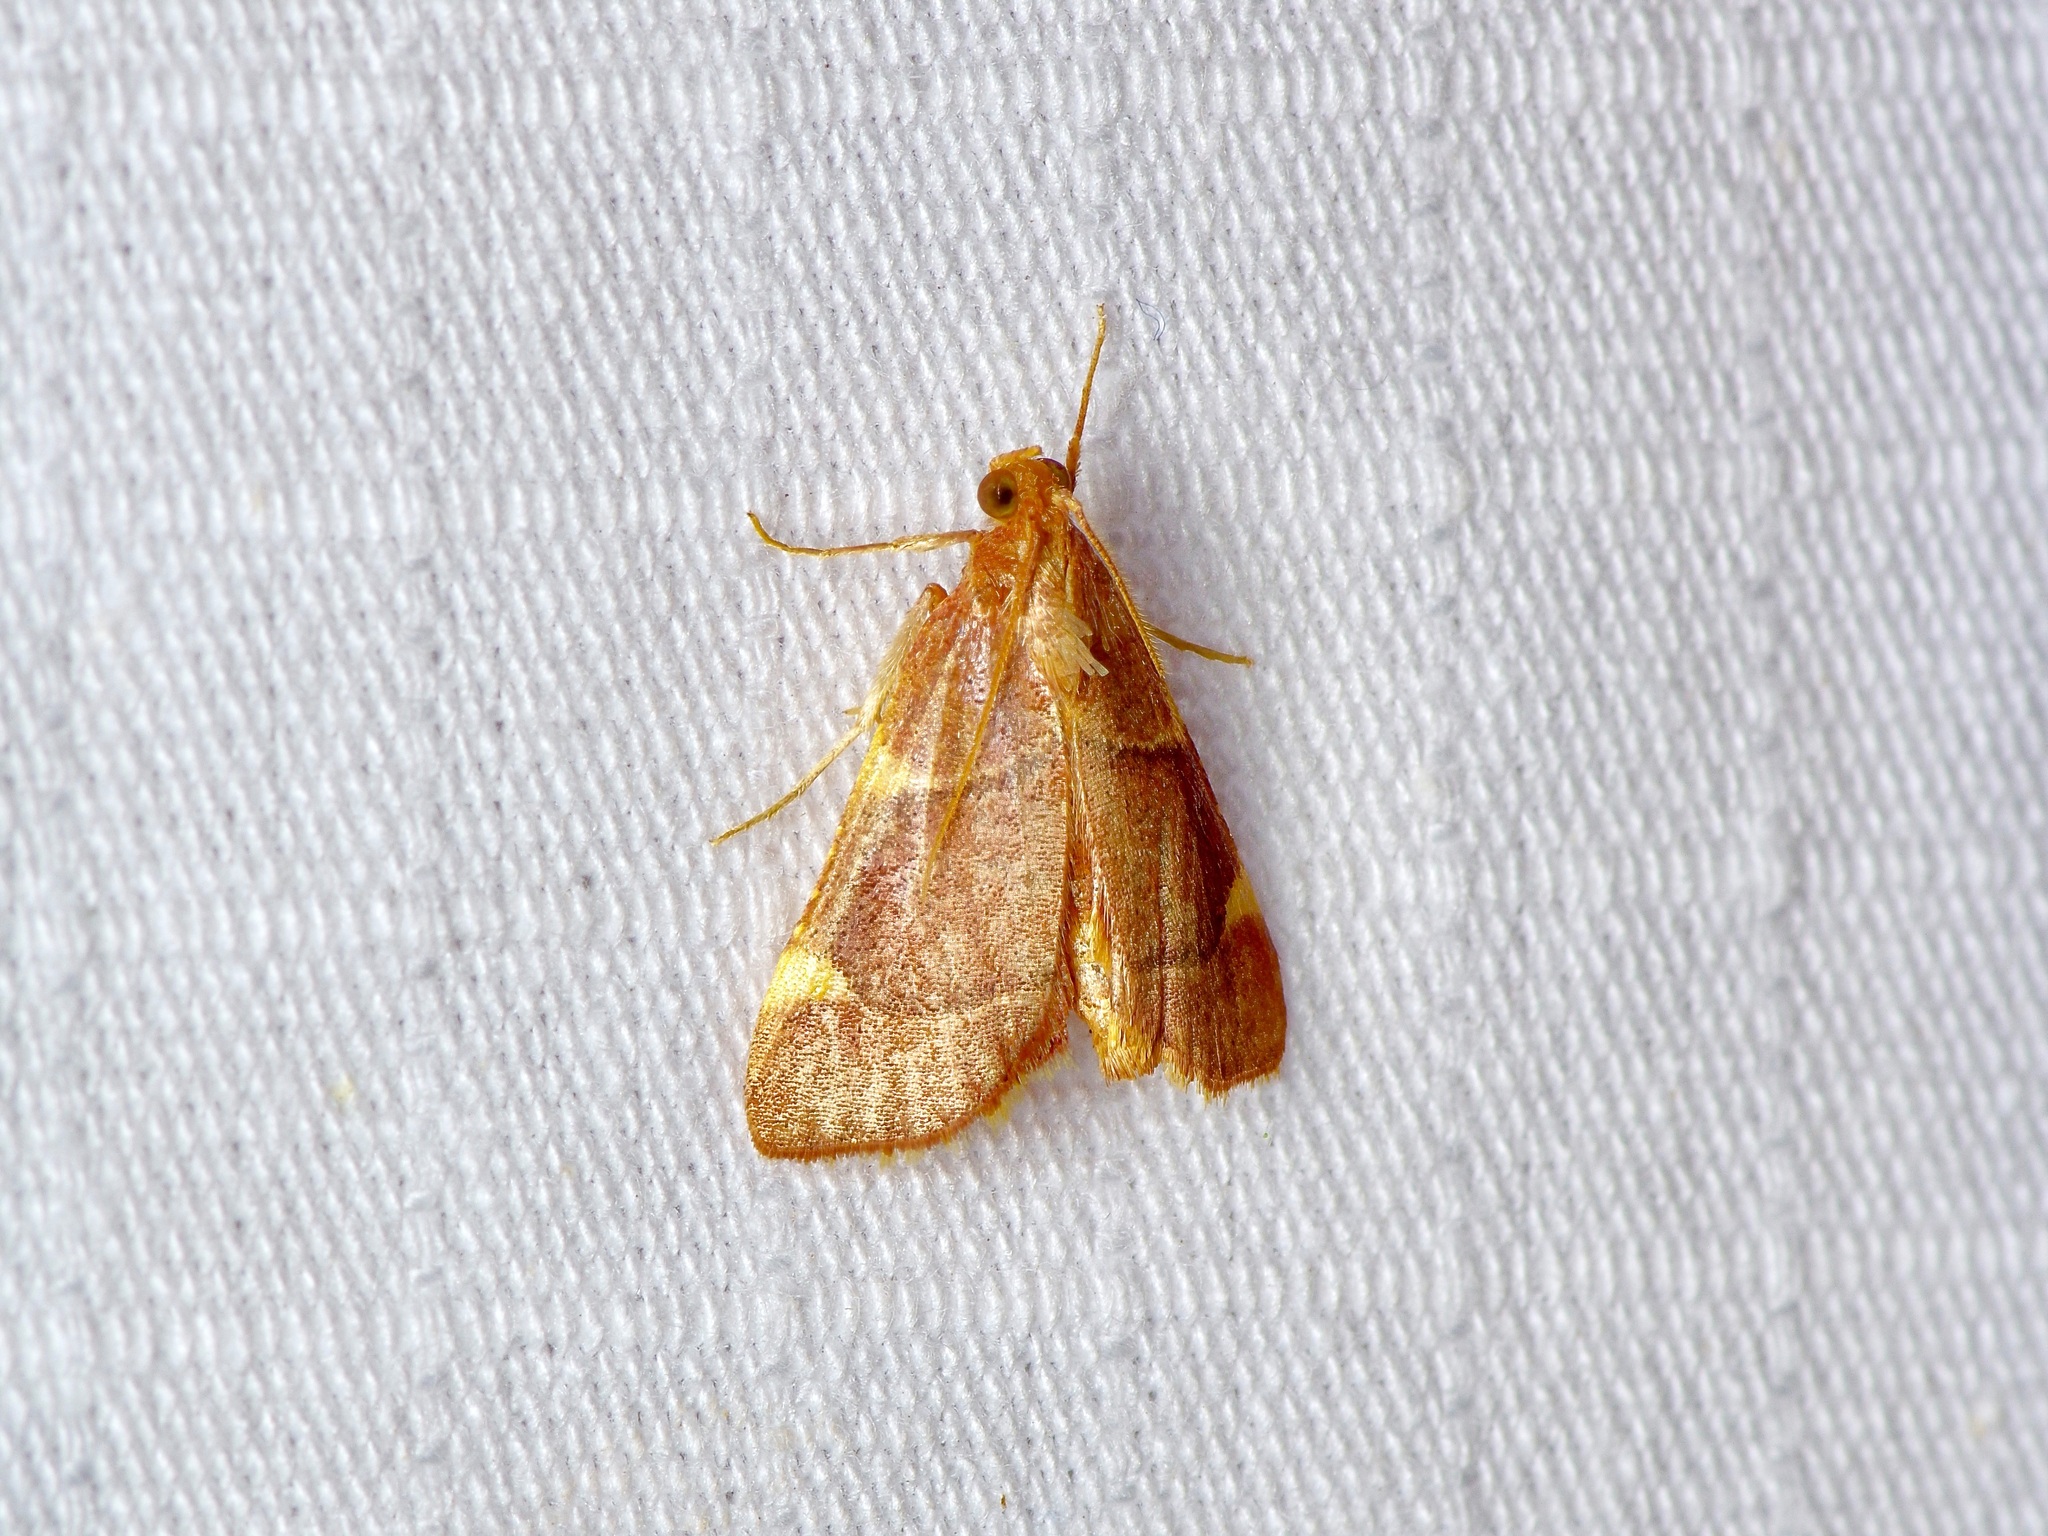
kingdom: Animalia
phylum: Arthropoda
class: Insecta
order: Lepidoptera
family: Pyralidae
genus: Hypsopygia
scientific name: Hypsopygia olinalis
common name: Yellow-fringed dolichomia moth
